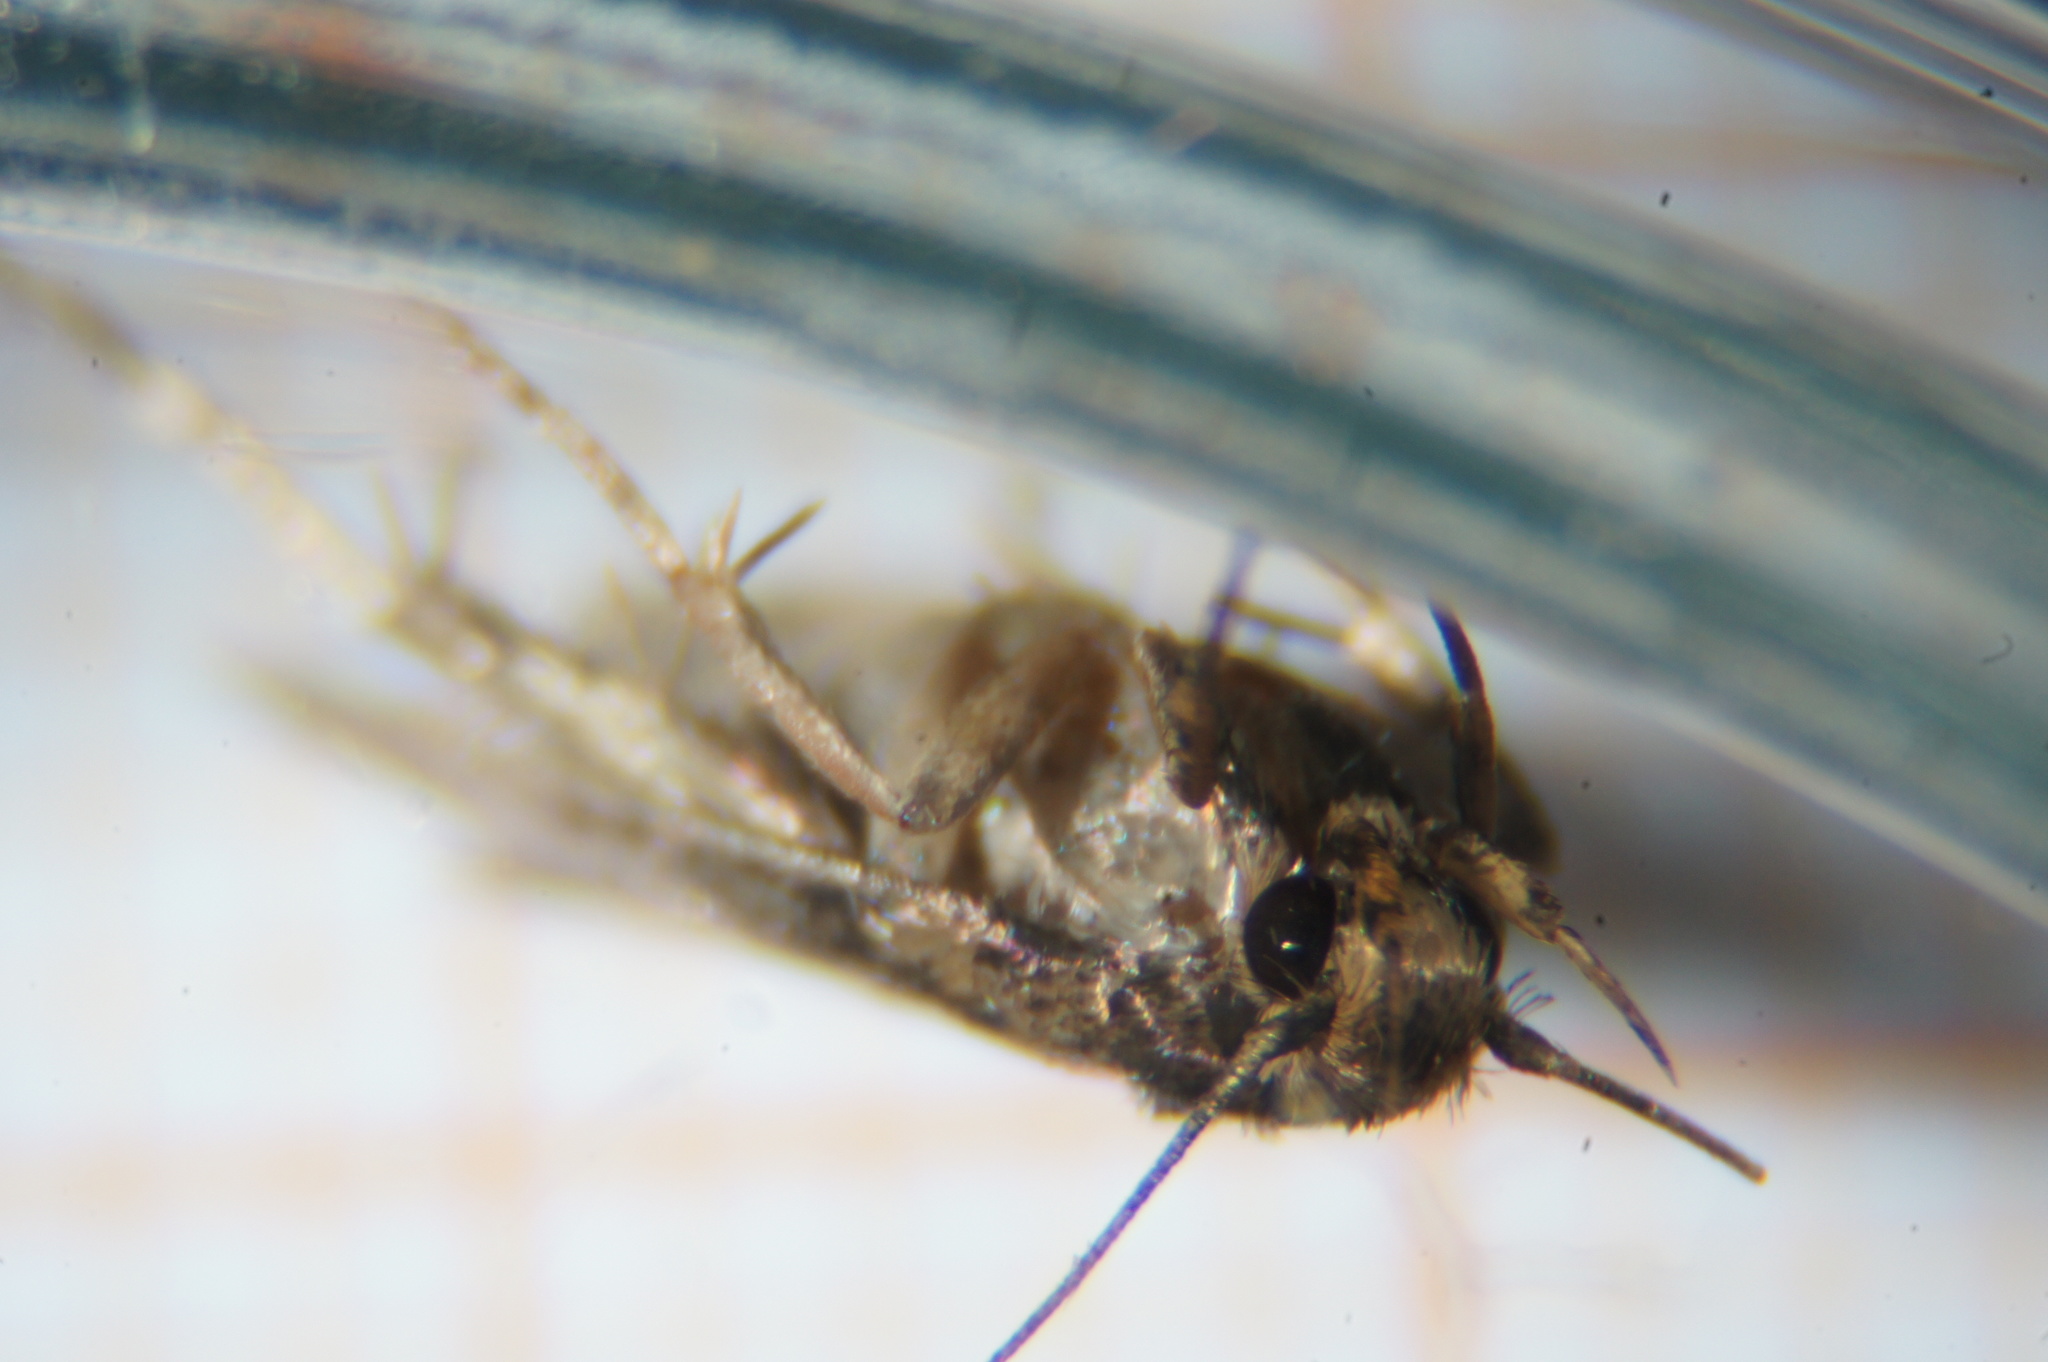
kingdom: Animalia
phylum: Arthropoda
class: Insecta
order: Lepidoptera
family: Oecophoridae
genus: Hofmannophila
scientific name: Hofmannophila pseudospretella
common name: Brown house moth
